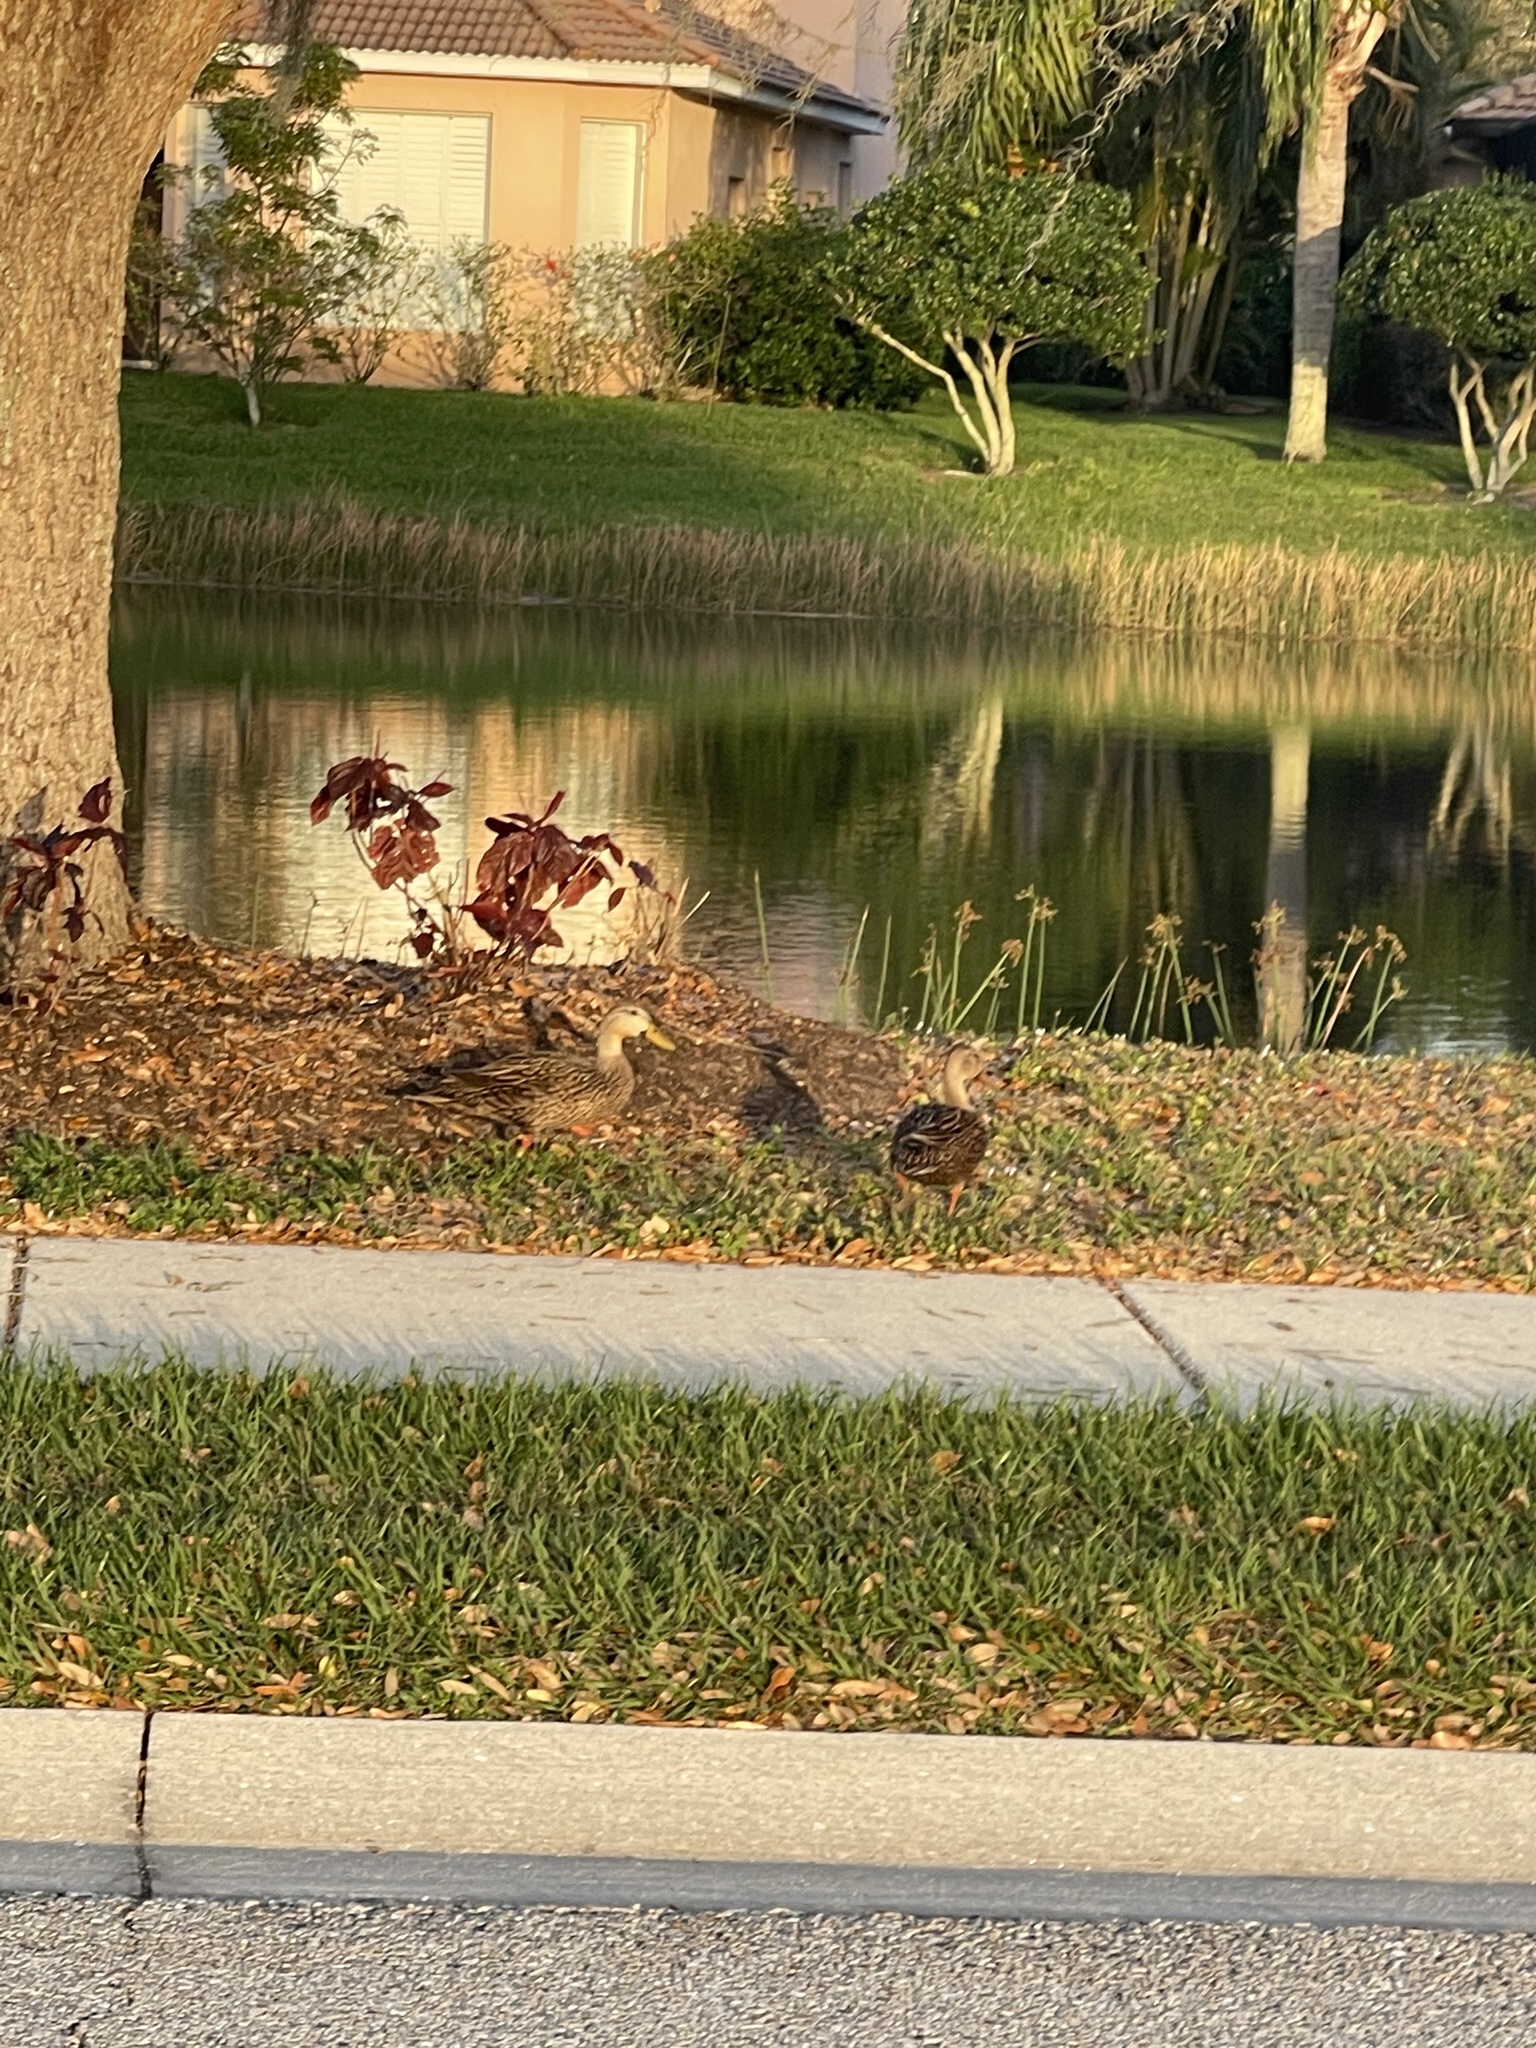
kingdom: Animalia
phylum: Chordata
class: Aves
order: Anseriformes
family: Anatidae
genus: Anas
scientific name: Anas
